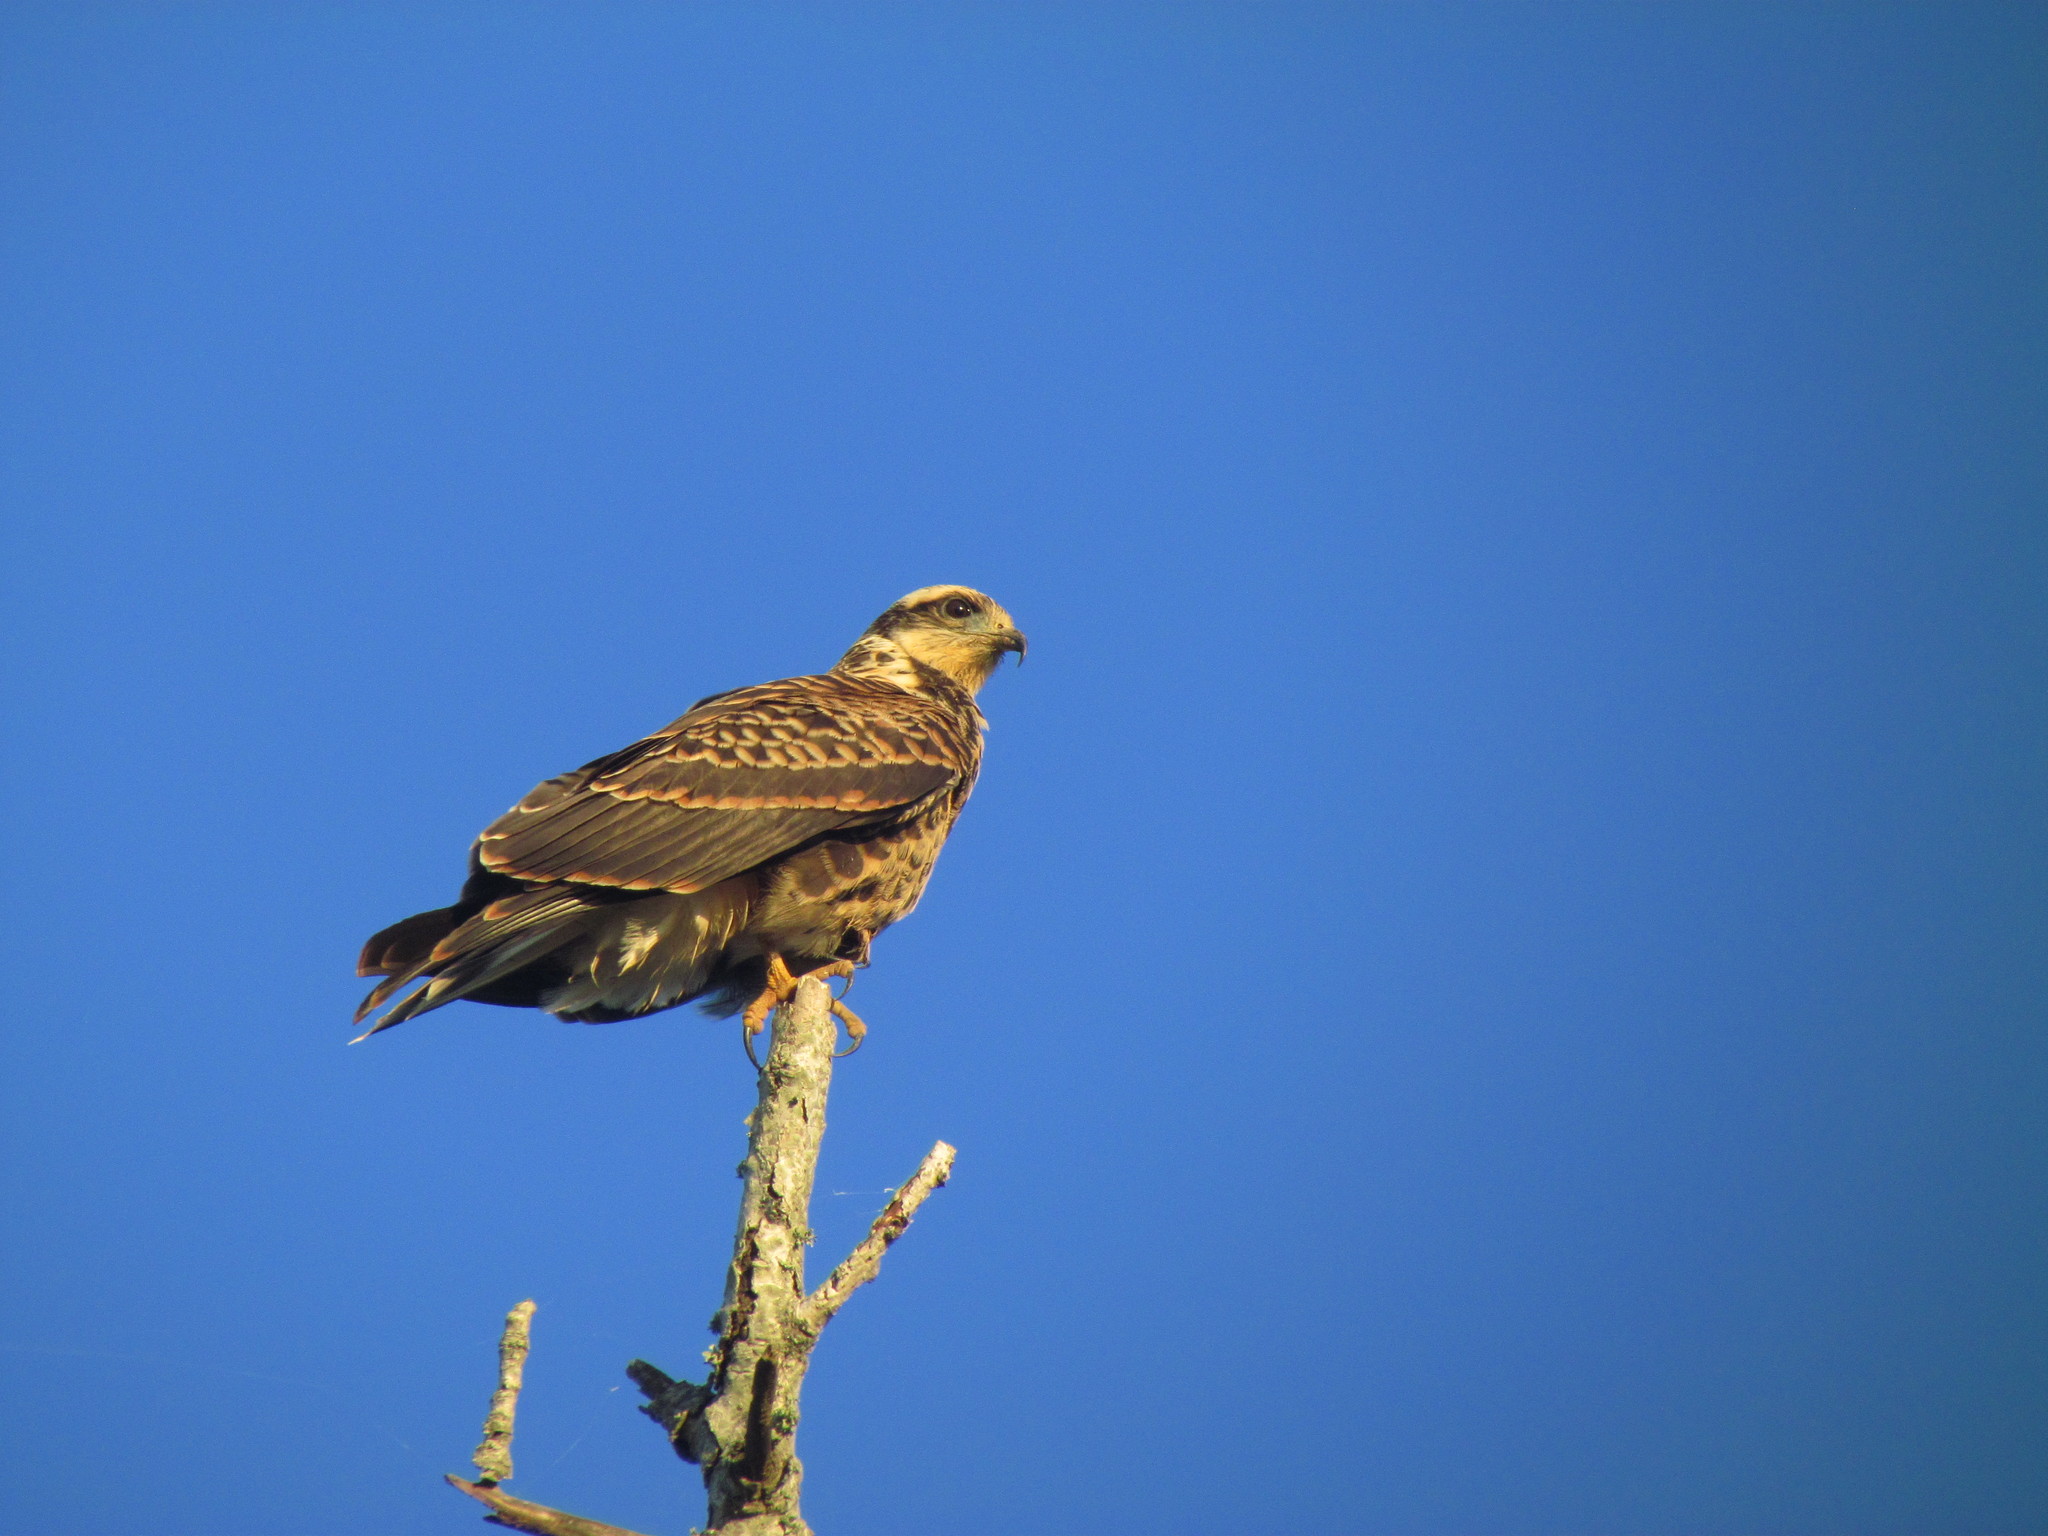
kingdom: Animalia
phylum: Chordata
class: Aves
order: Accipitriformes
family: Accipitridae
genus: Rostrhamus
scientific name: Rostrhamus sociabilis
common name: Snail kite
